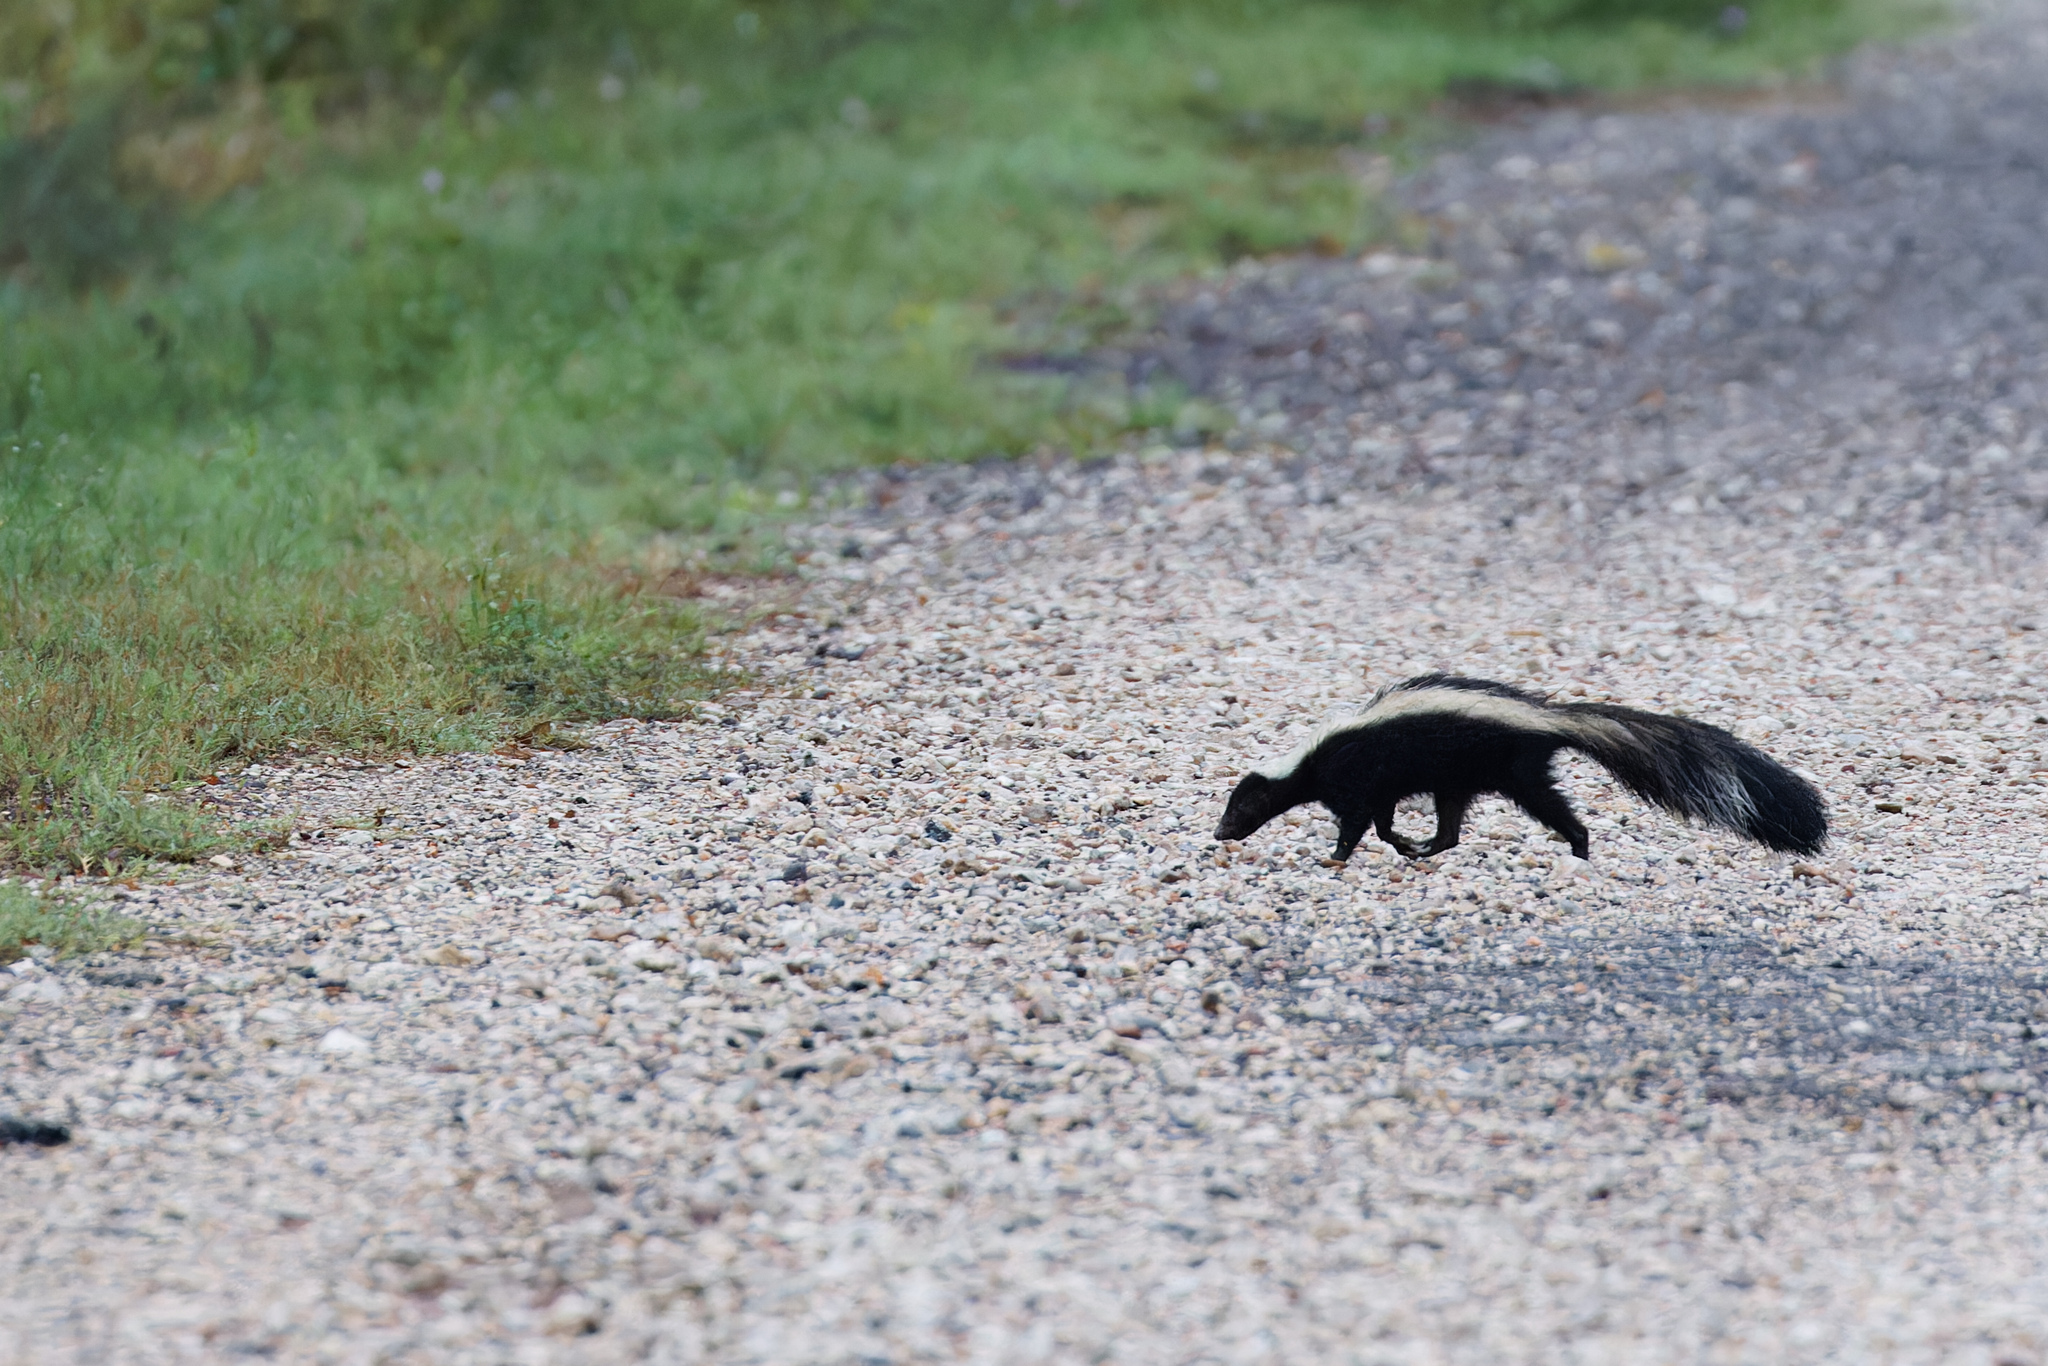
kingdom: Animalia
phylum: Chordata
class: Mammalia
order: Carnivora
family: Mephitidae
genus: Mephitis
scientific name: Mephitis mephitis
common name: Striped skunk
